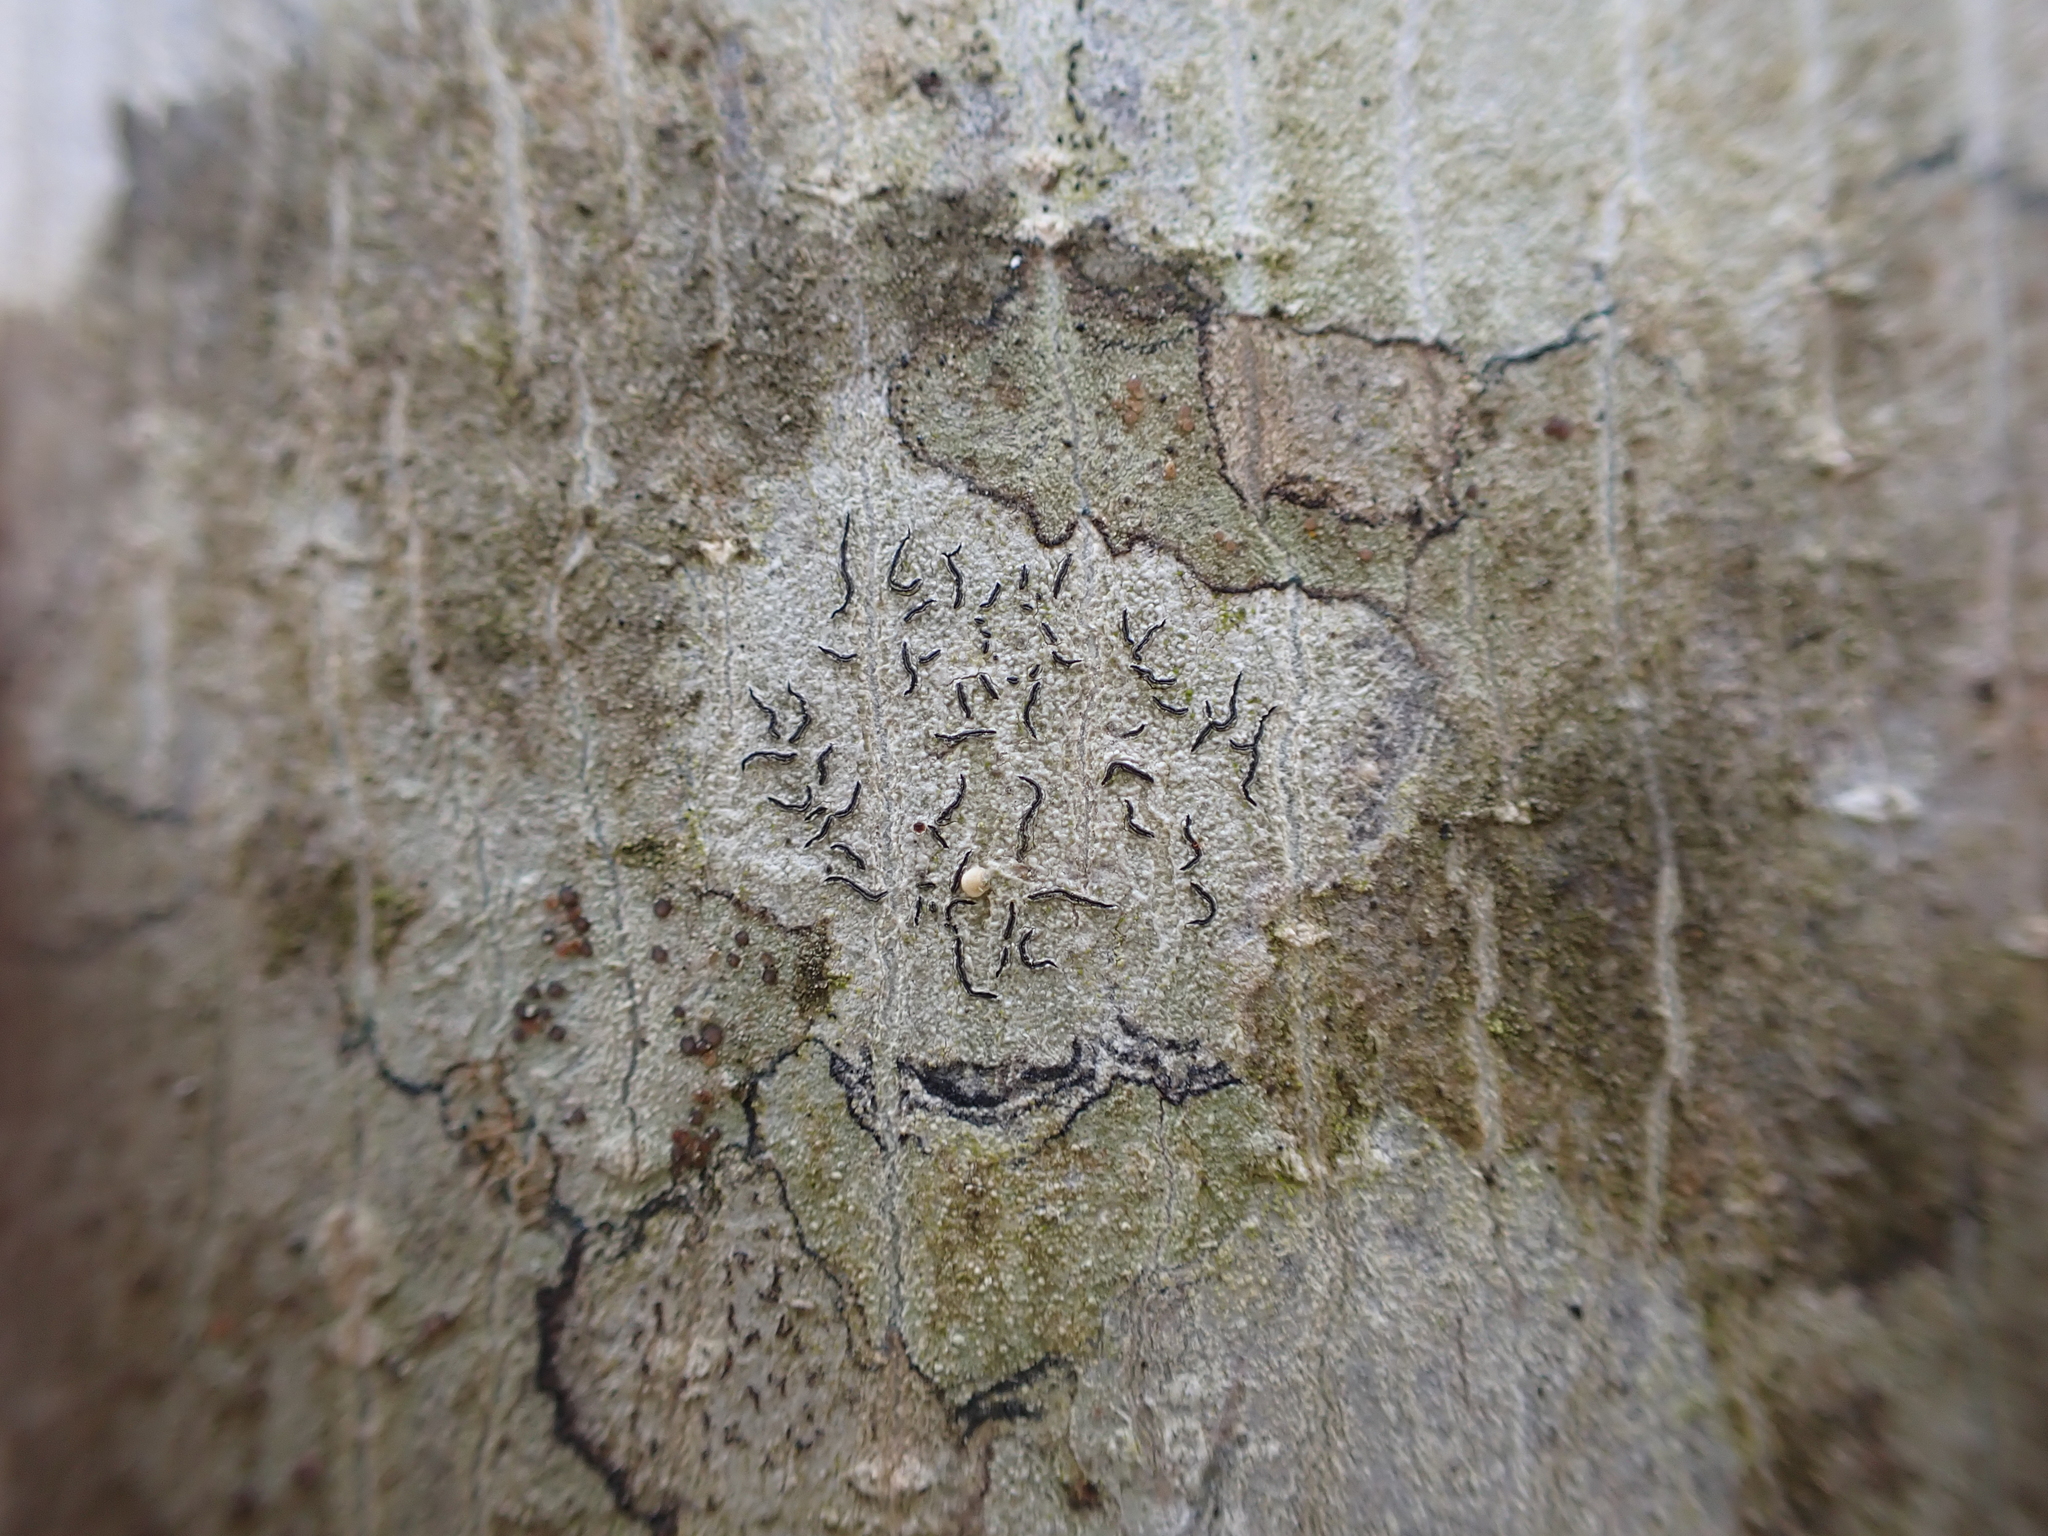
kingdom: Fungi
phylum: Ascomycota
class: Lecanoromycetes
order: Ostropales
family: Graphidaceae
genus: Graphis
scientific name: Graphis scripta
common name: Script lichen
